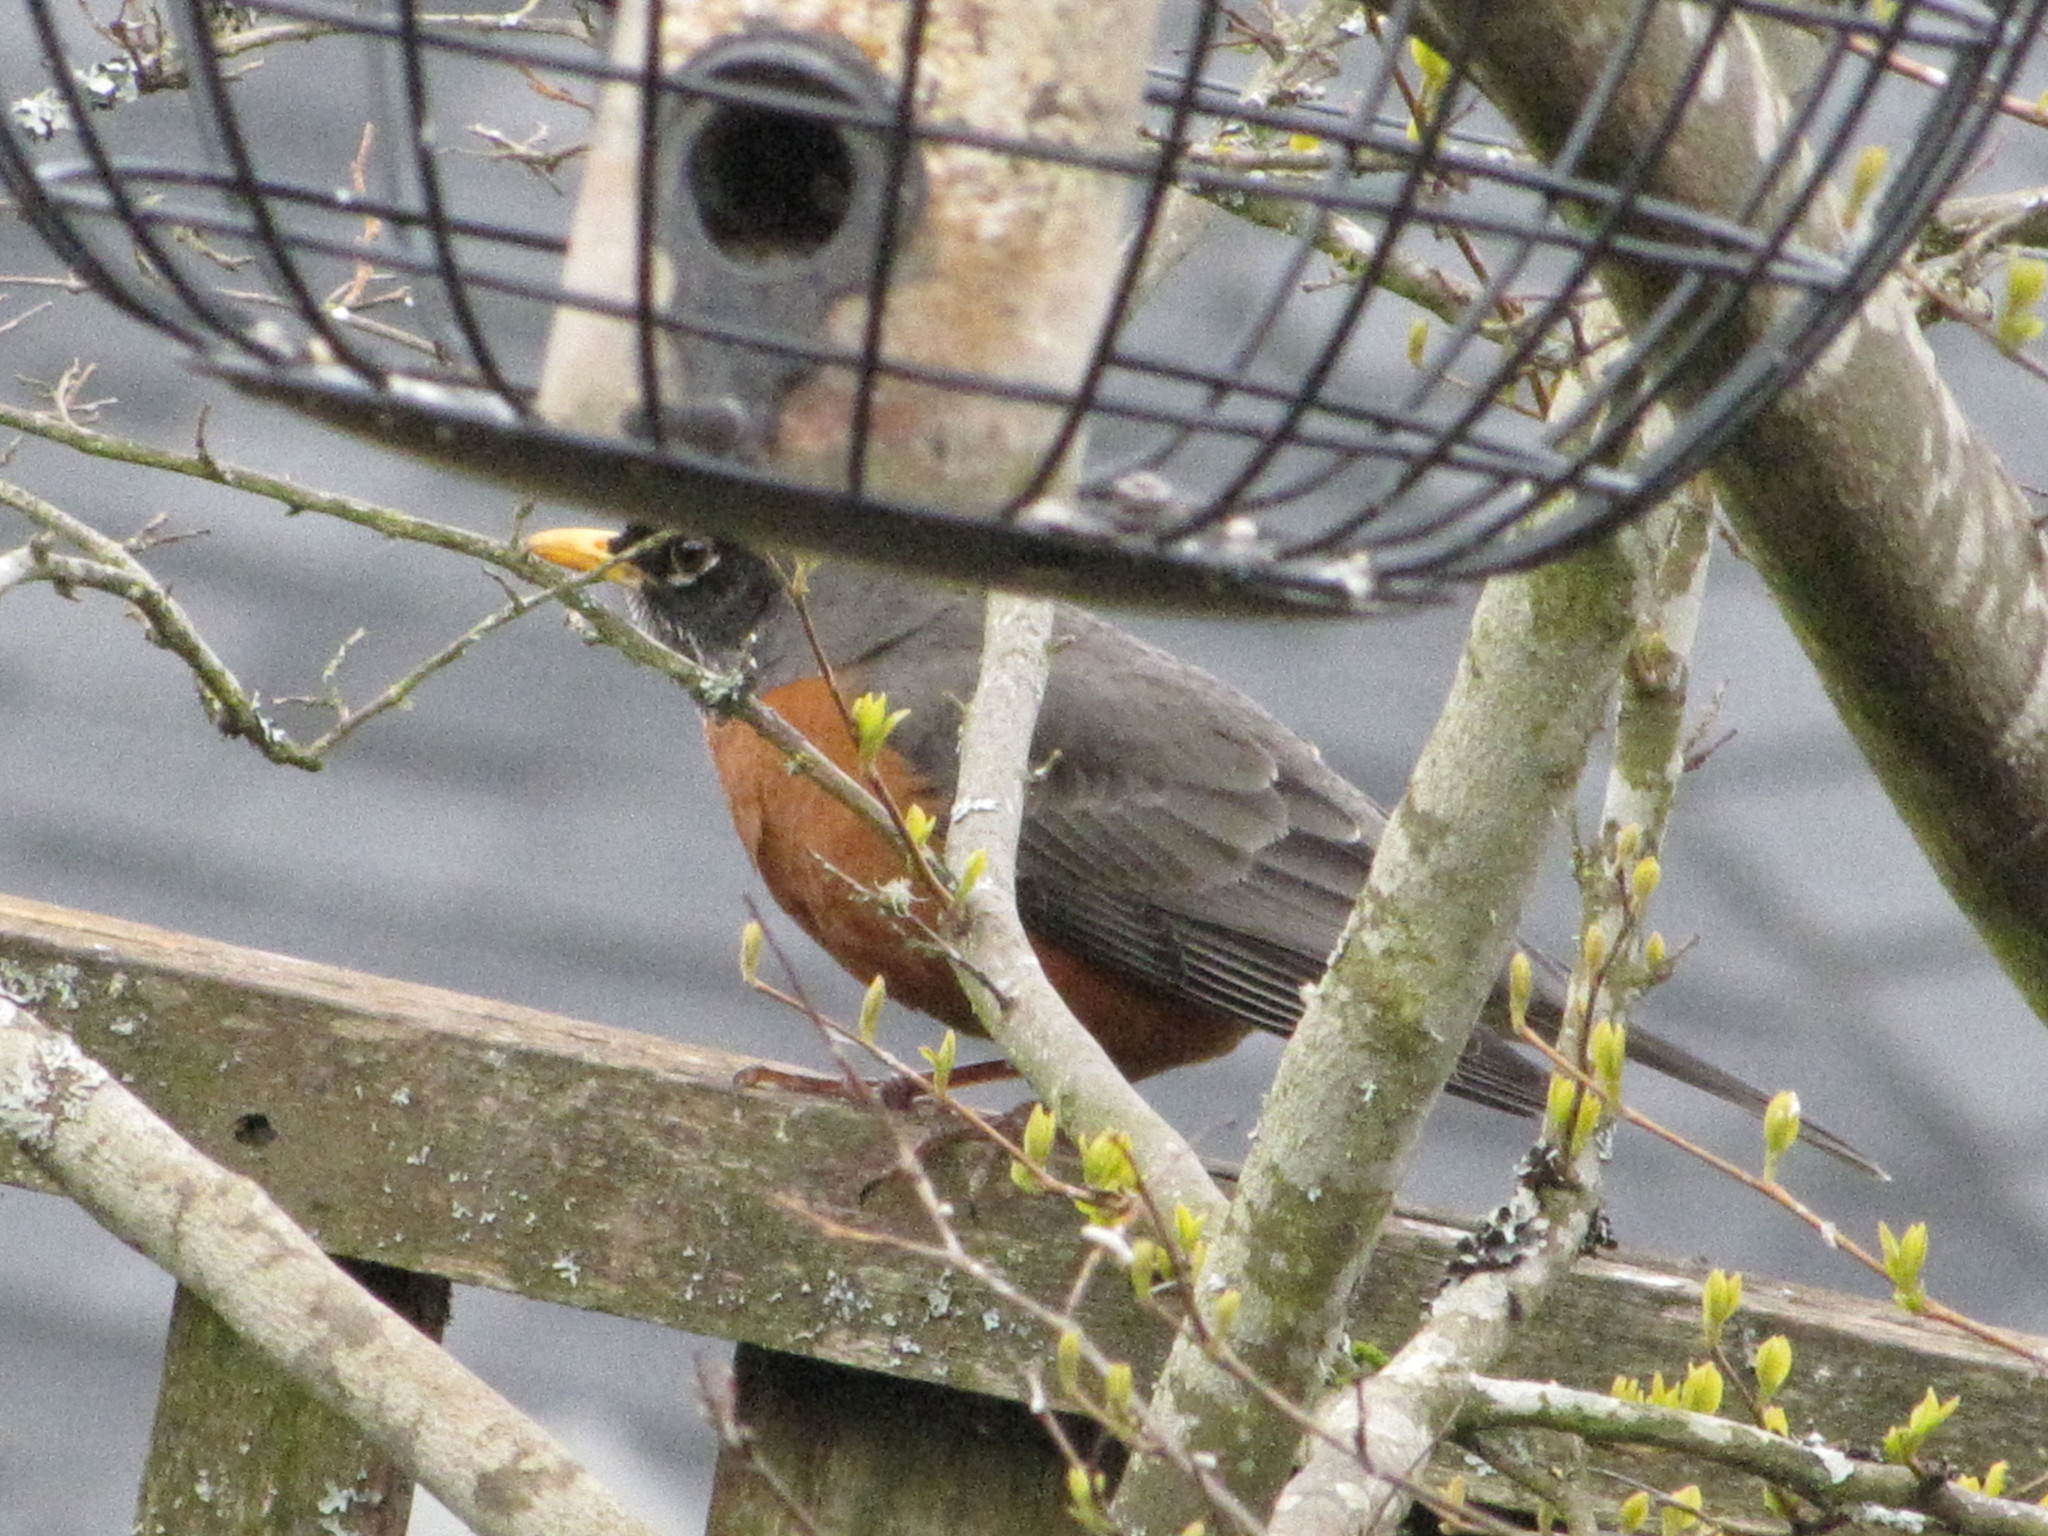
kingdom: Animalia
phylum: Chordata
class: Aves
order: Passeriformes
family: Turdidae
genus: Turdus
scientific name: Turdus migratorius
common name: American robin
